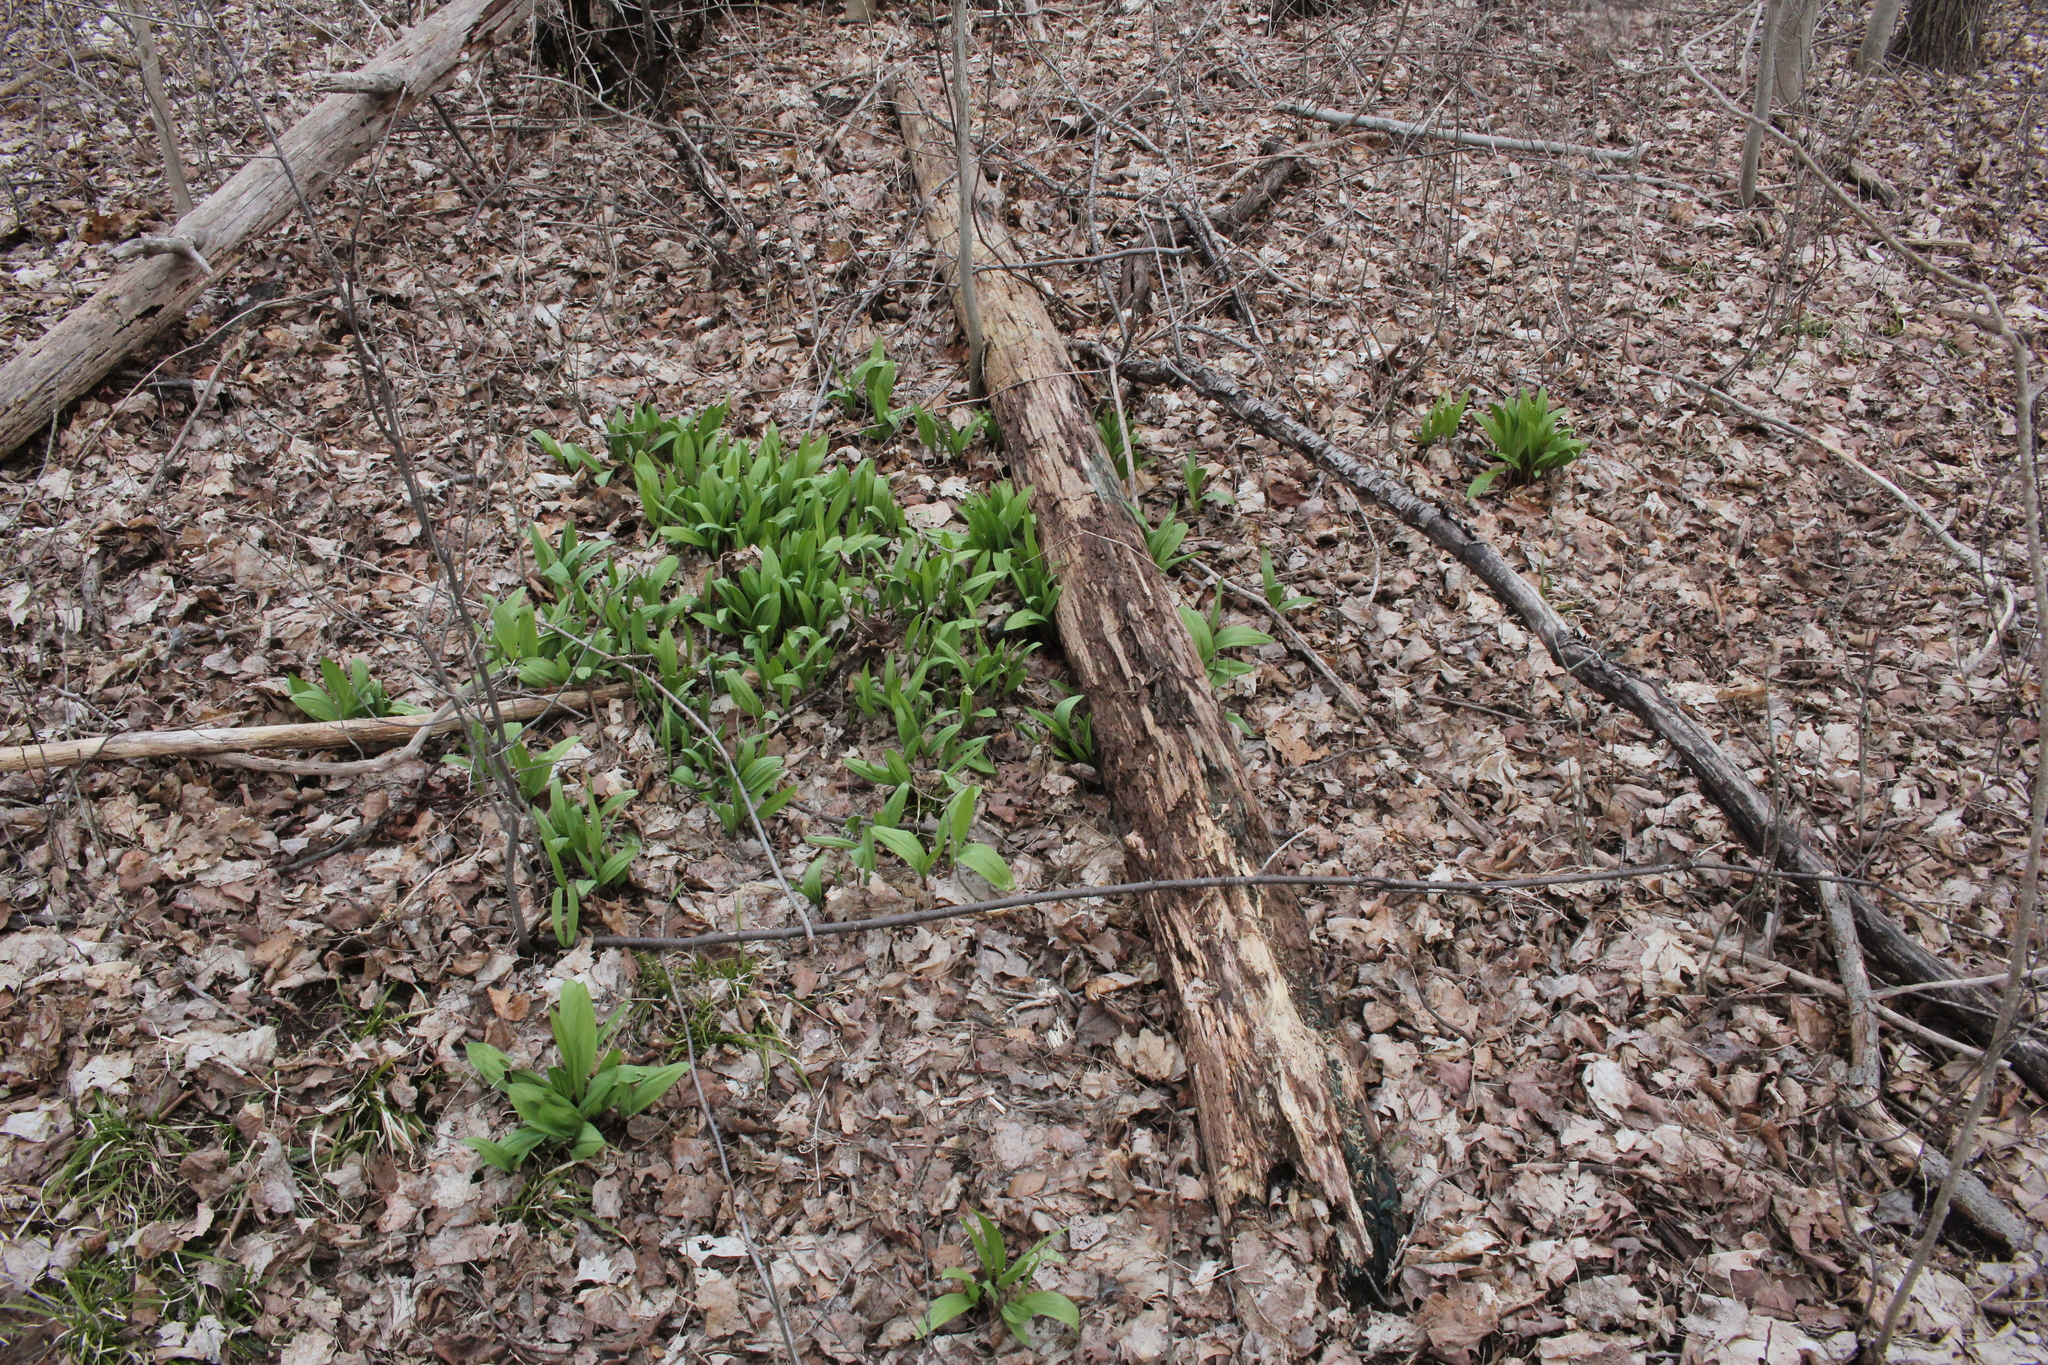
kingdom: Plantae
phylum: Tracheophyta
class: Liliopsida
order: Asparagales
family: Amaryllidaceae
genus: Allium
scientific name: Allium tricoccum
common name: Ramp
